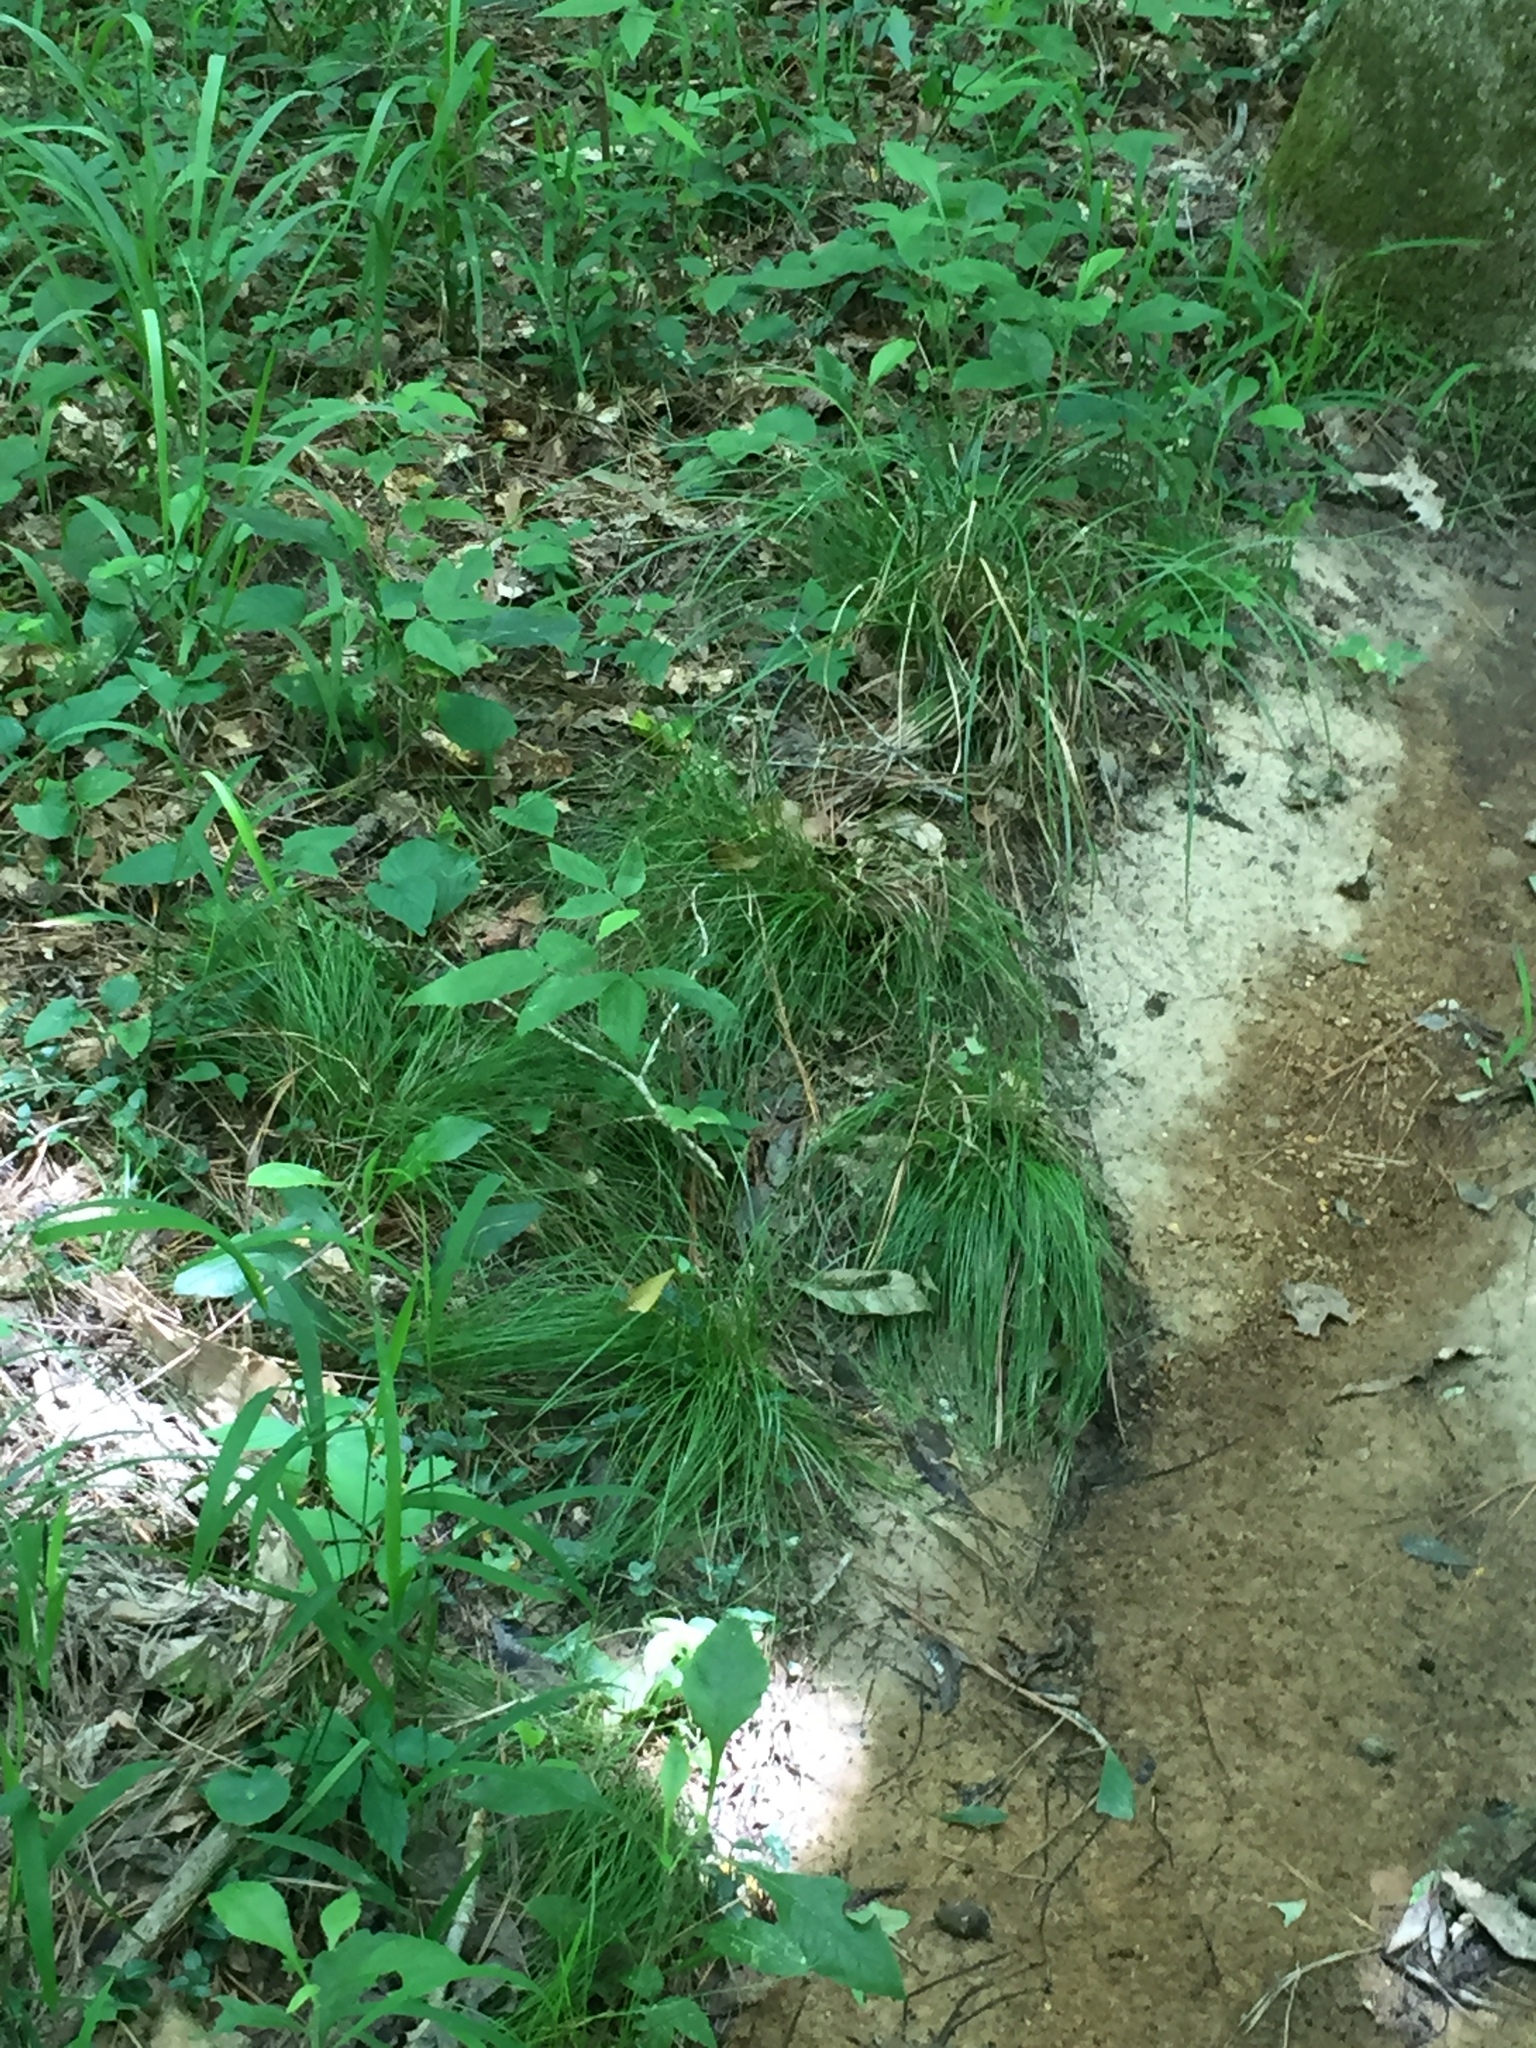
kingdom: Plantae
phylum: Tracheophyta
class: Liliopsida
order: Poales
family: Cyperaceae
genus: Carex
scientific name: Carex leptalea
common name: Bristly-stalked sedge
